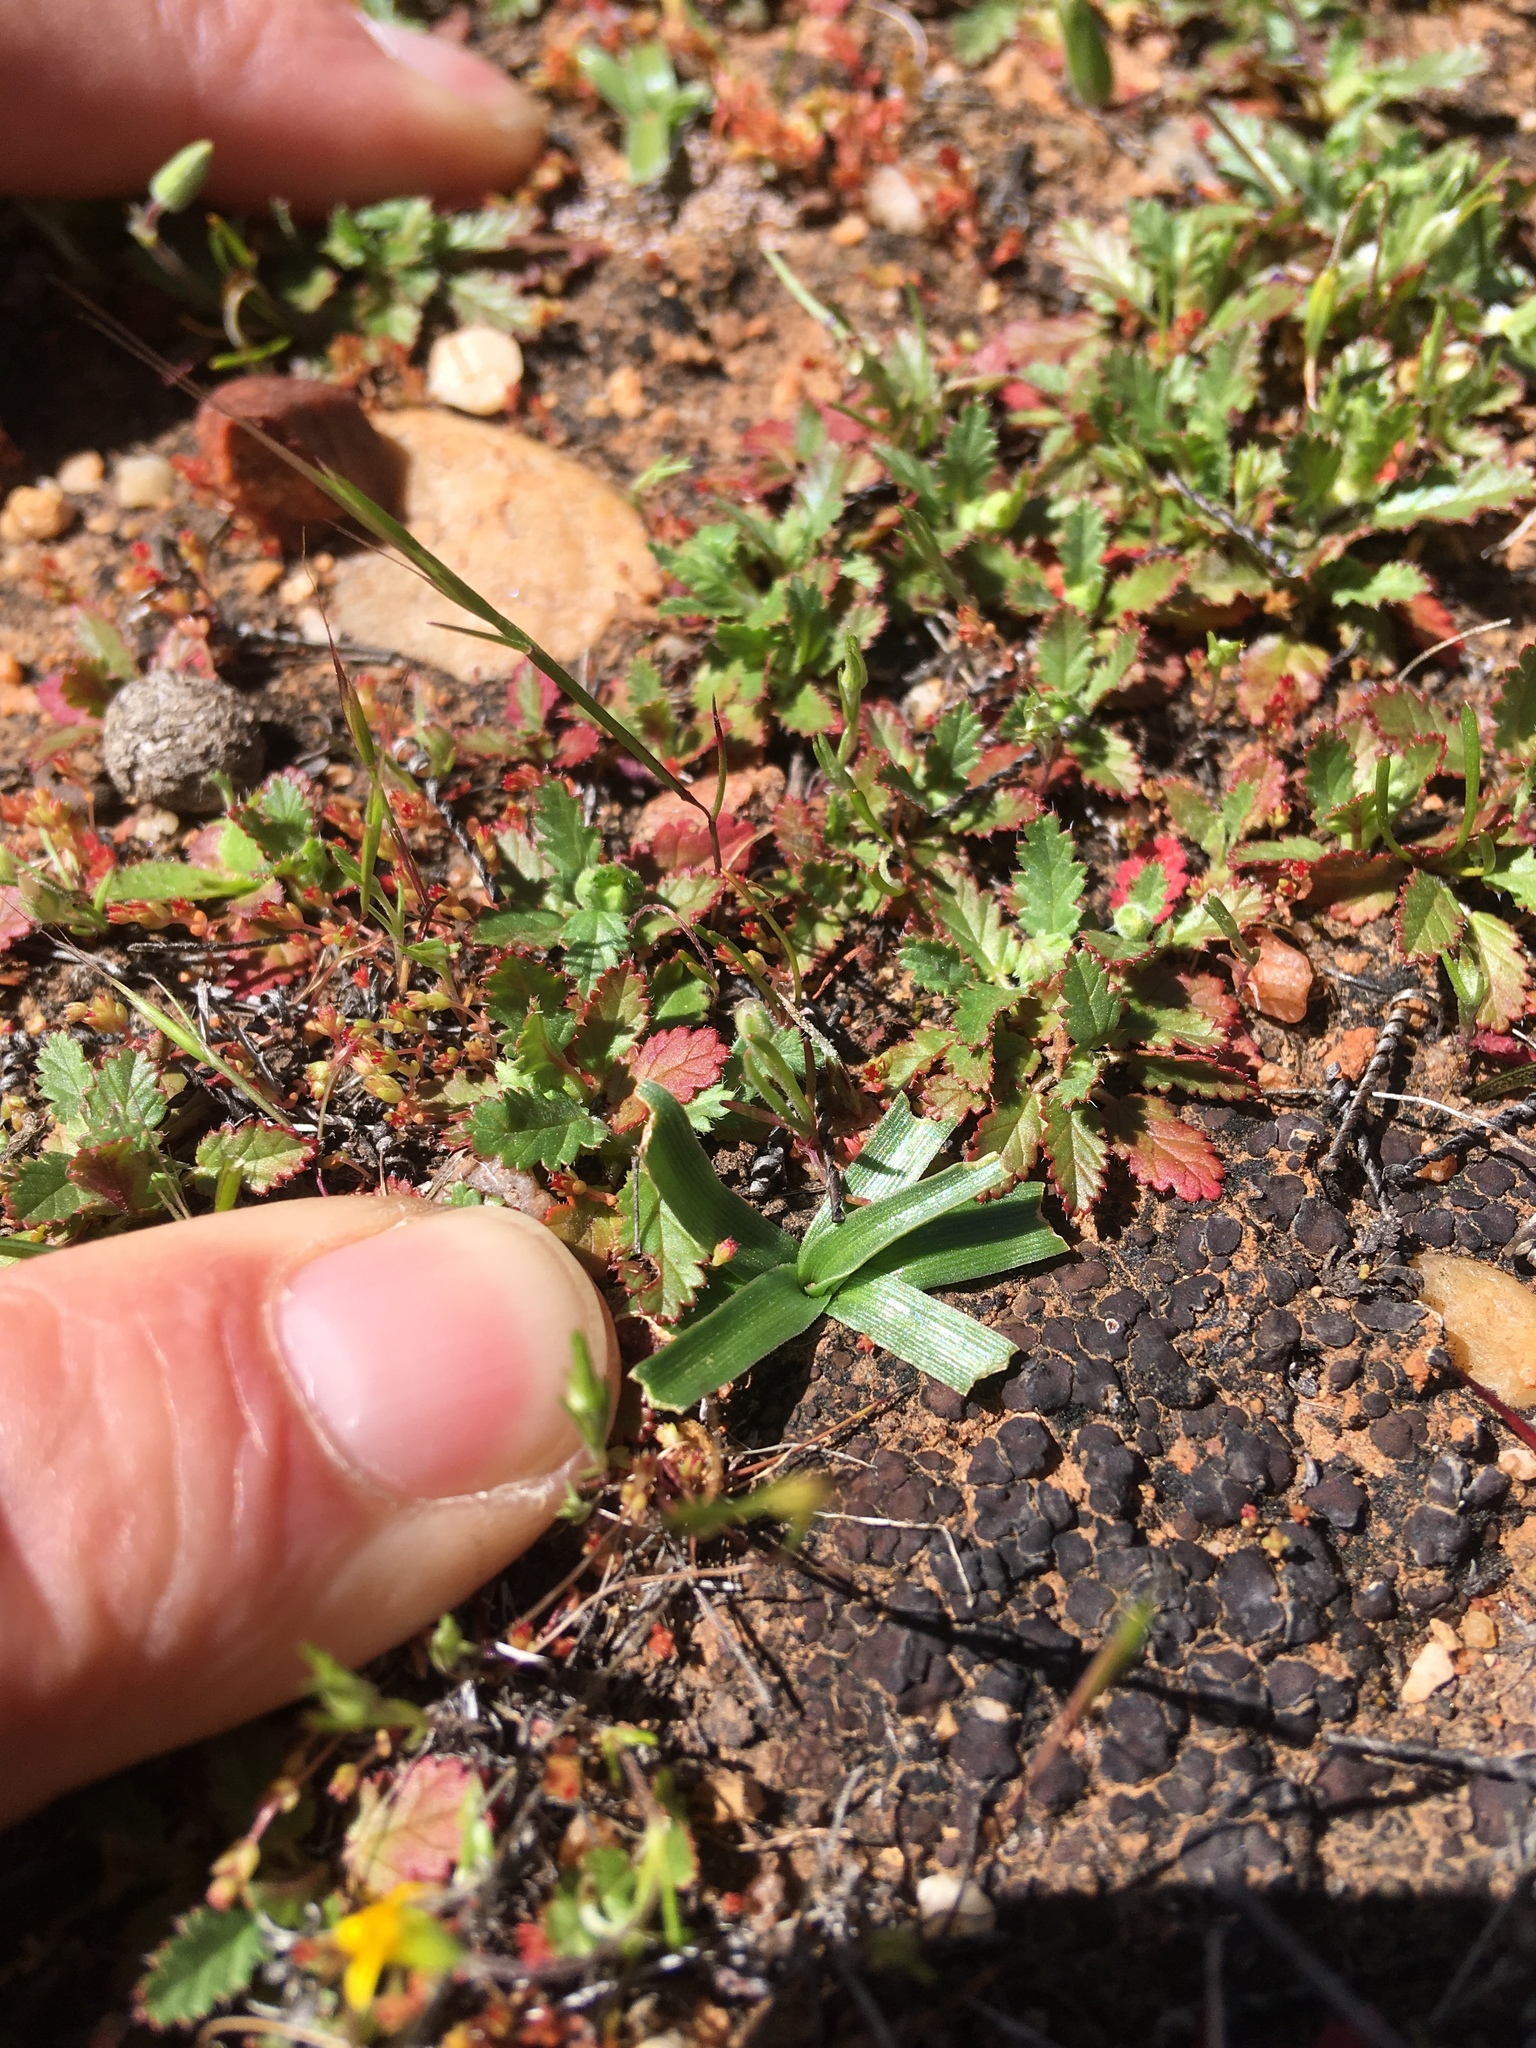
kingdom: Plantae
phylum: Tracheophyta
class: Liliopsida
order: Asparagales
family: Asparagaceae
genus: Hooveria
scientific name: Hooveria purpurea
